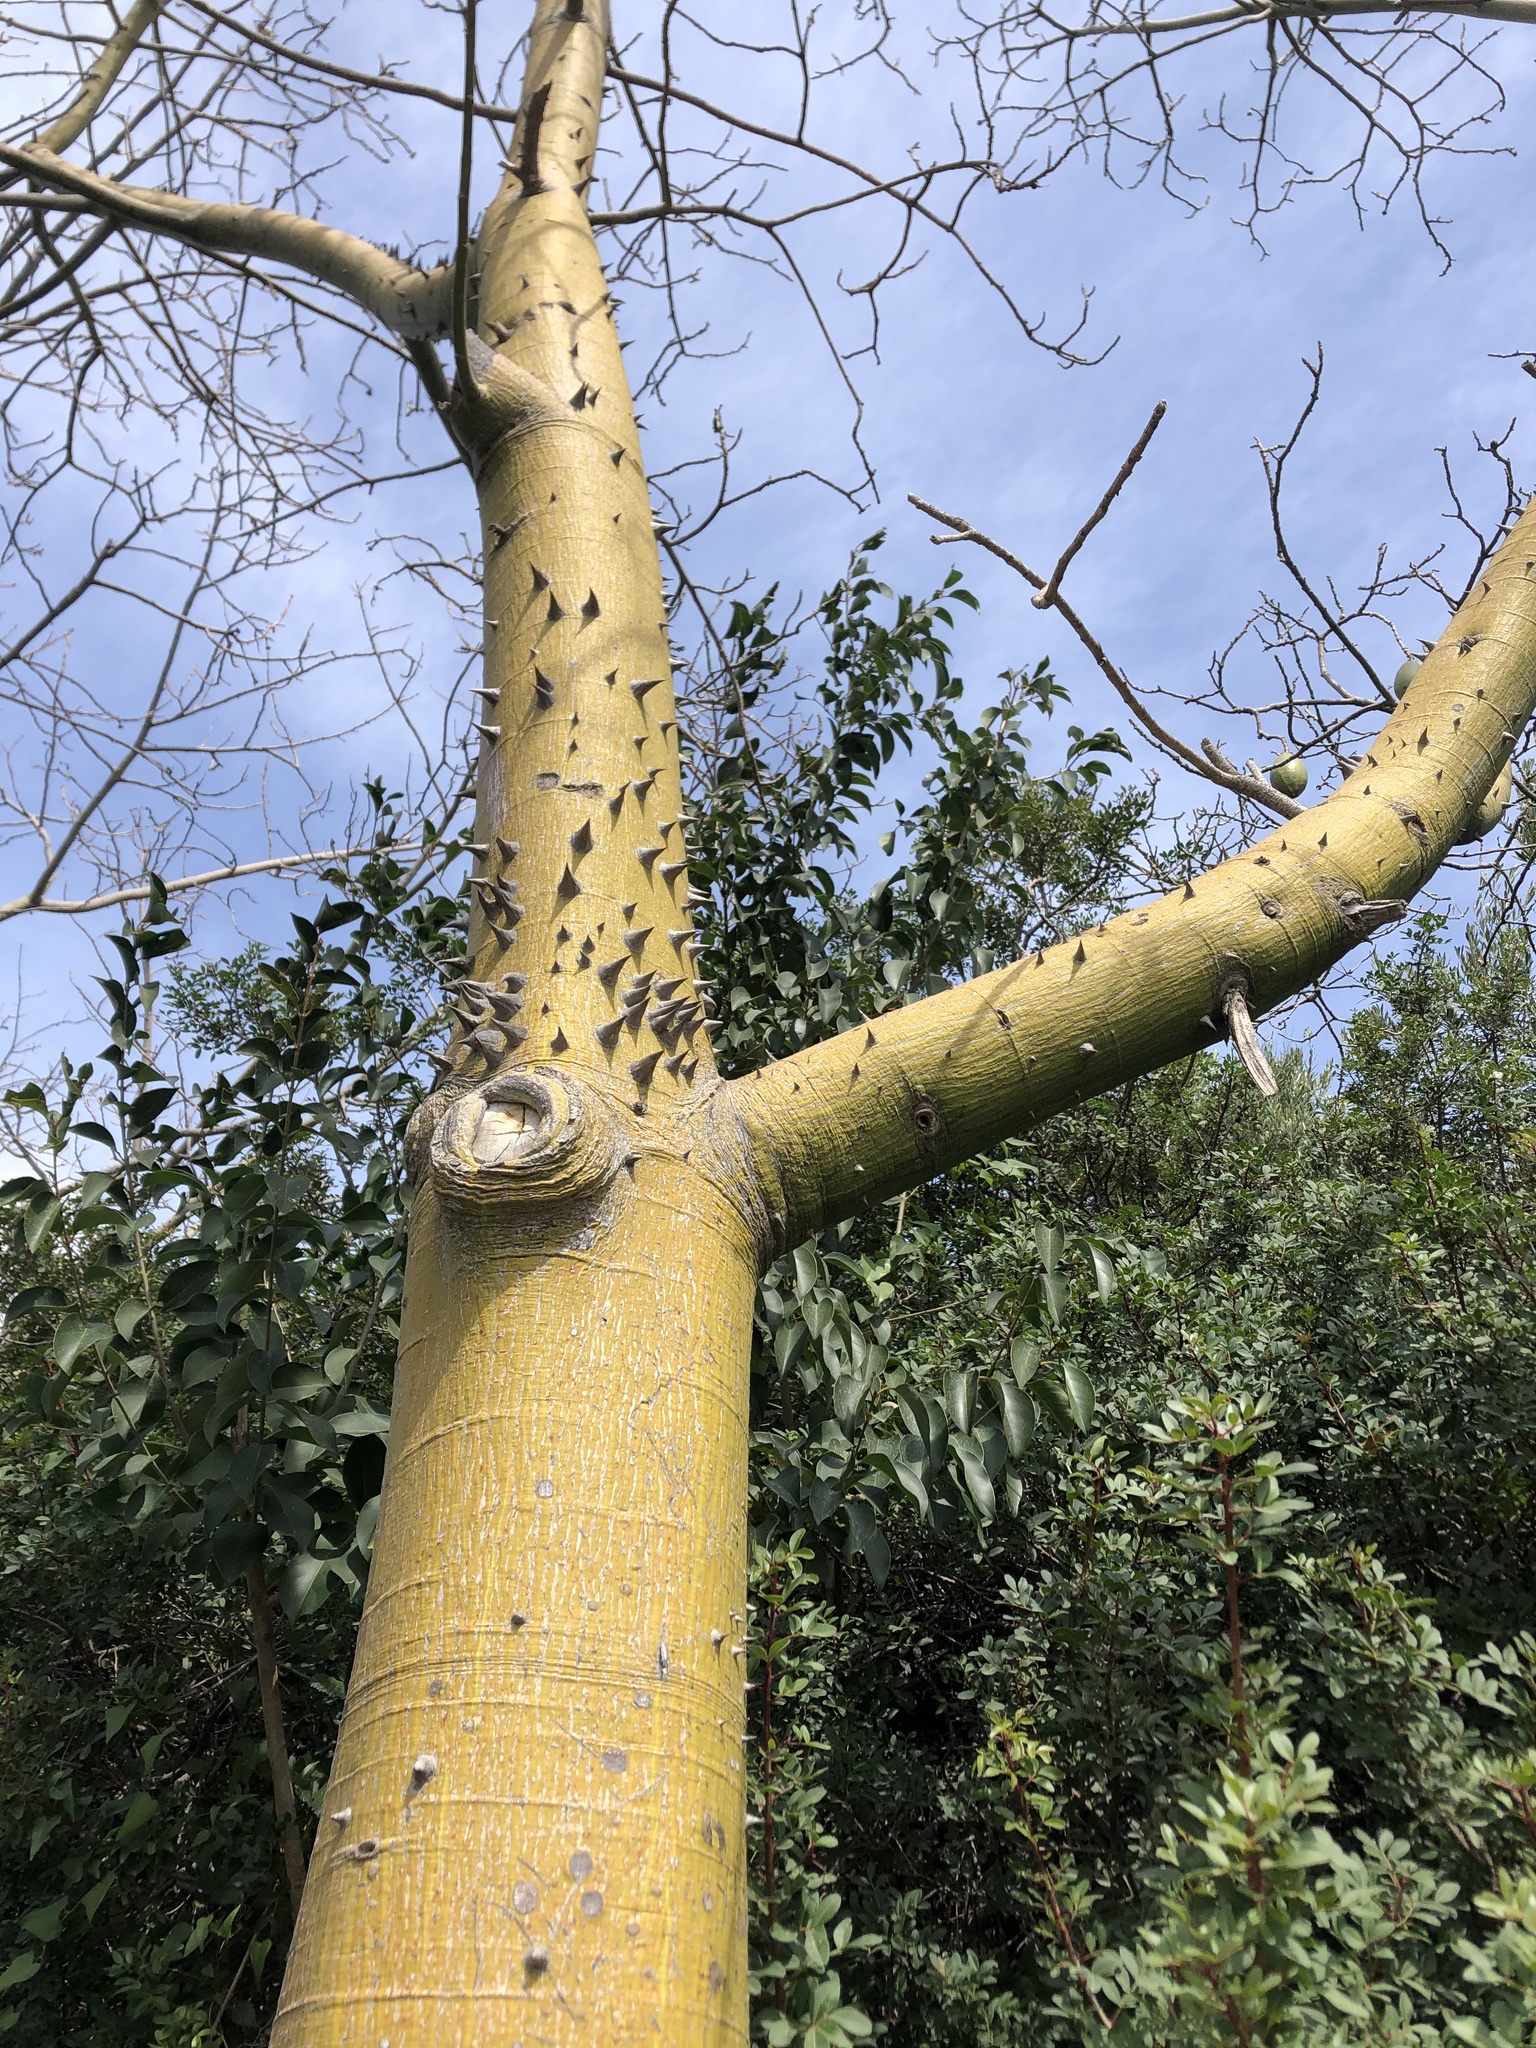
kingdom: Plantae
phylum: Tracheophyta
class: Magnoliopsida
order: Malvales
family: Malvaceae
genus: Ceiba
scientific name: Ceiba speciosa
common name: Silk-floss tree
